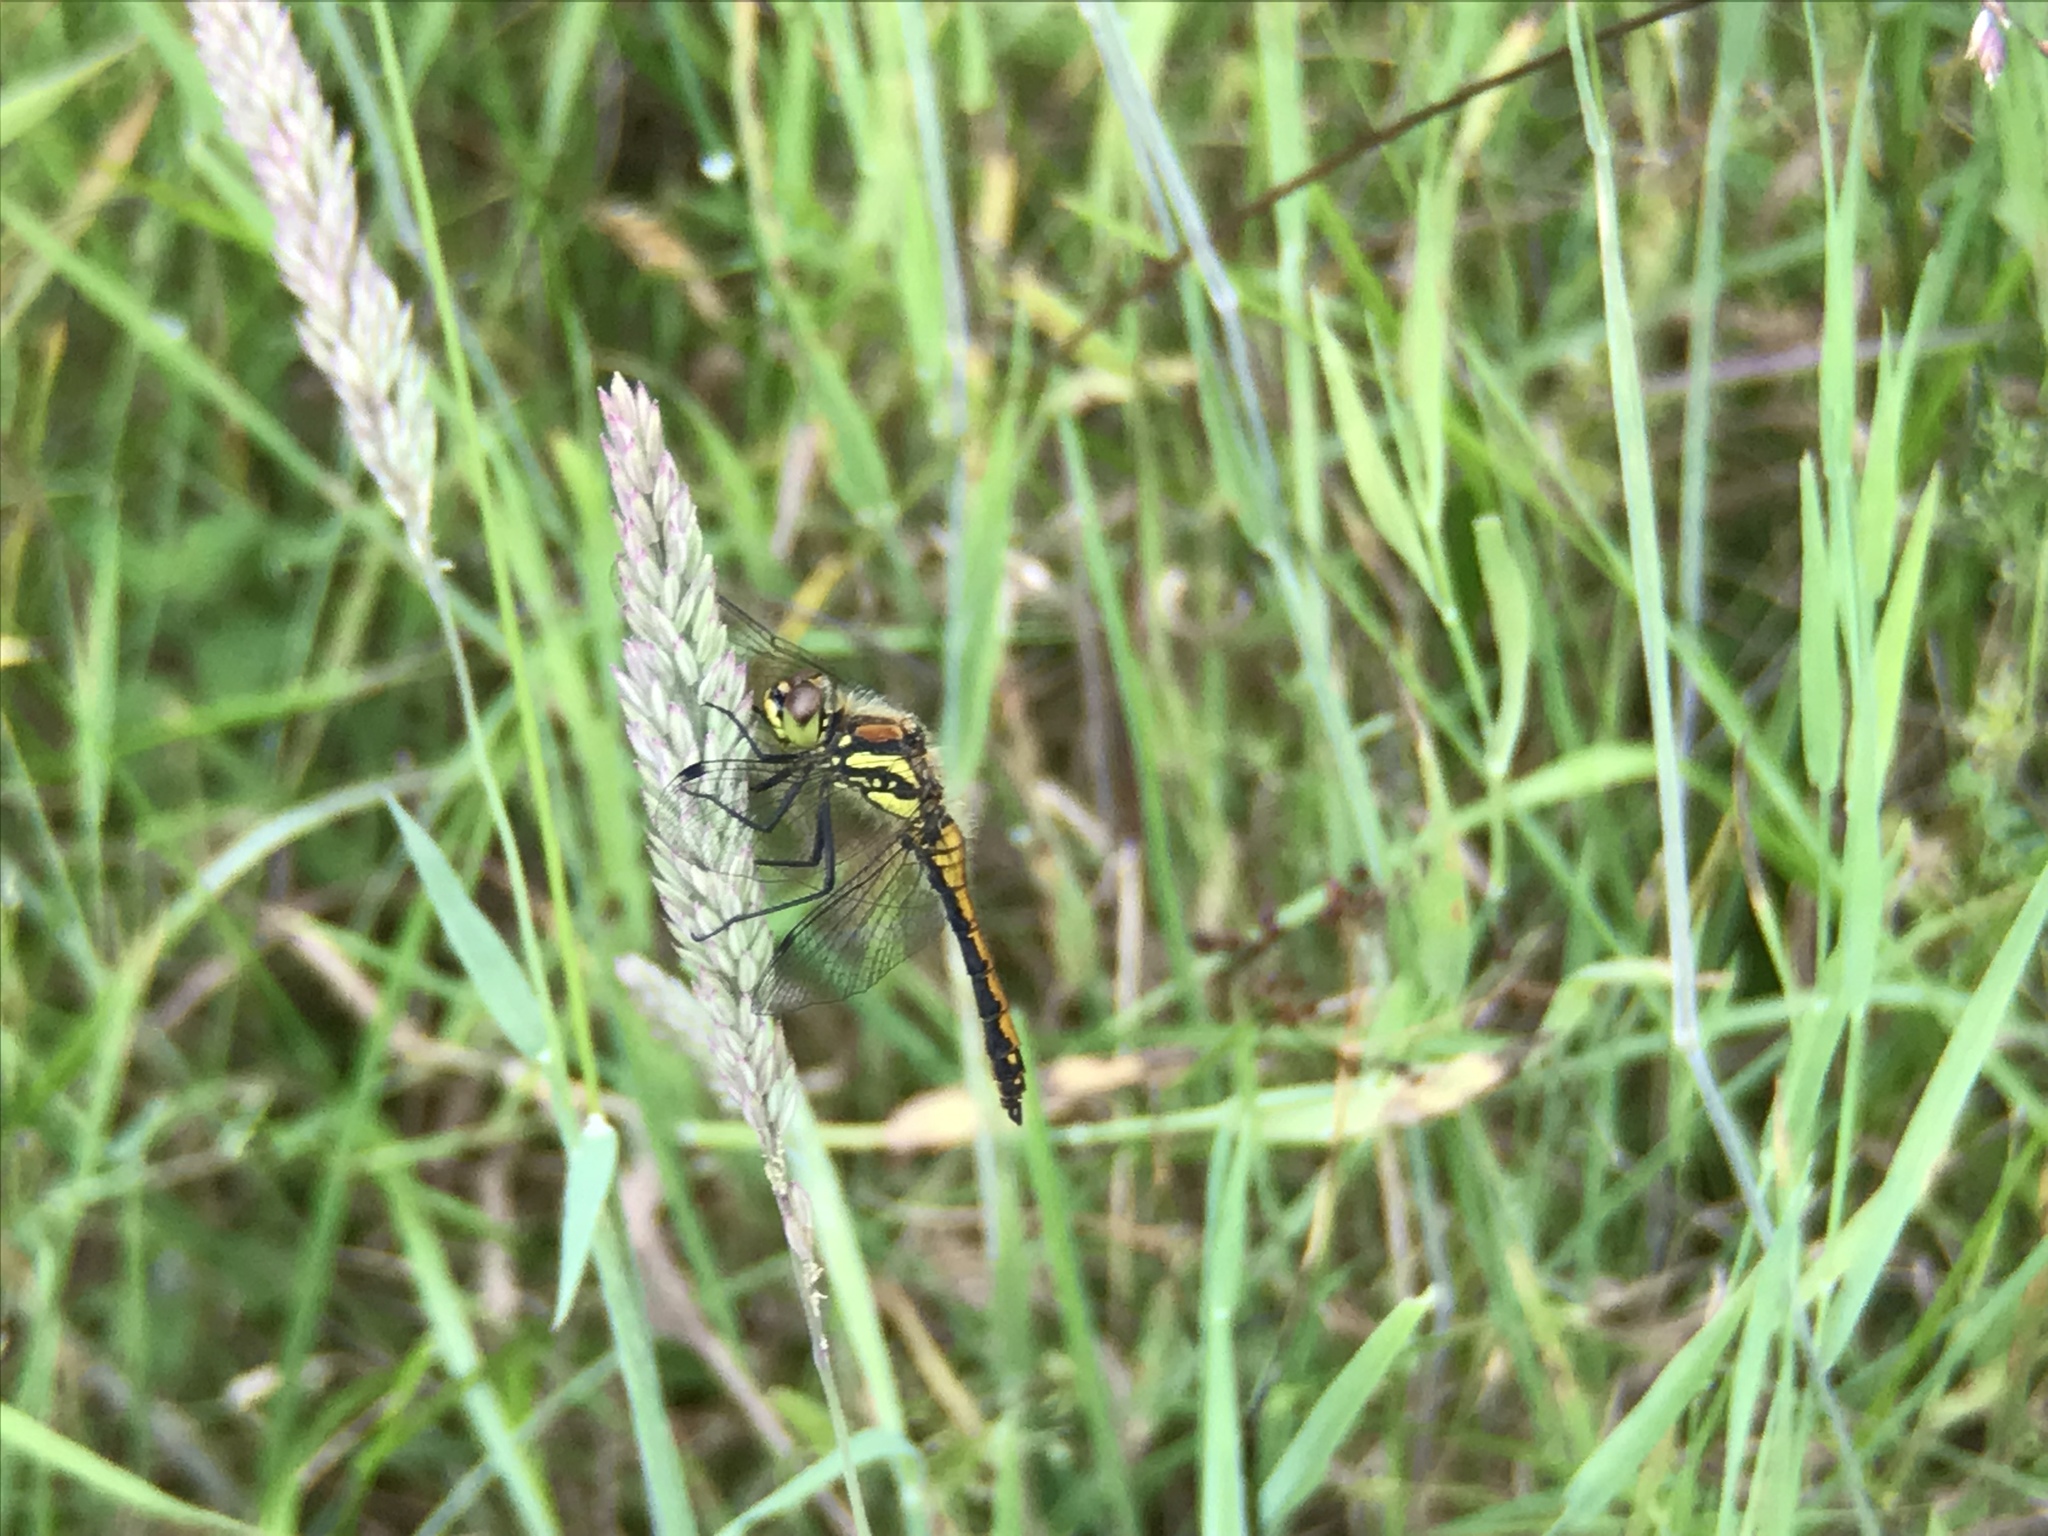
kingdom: Animalia
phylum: Arthropoda
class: Insecta
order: Odonata
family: Libellulidae
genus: Sympetrum
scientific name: Sympetrum danae
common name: Black darter
